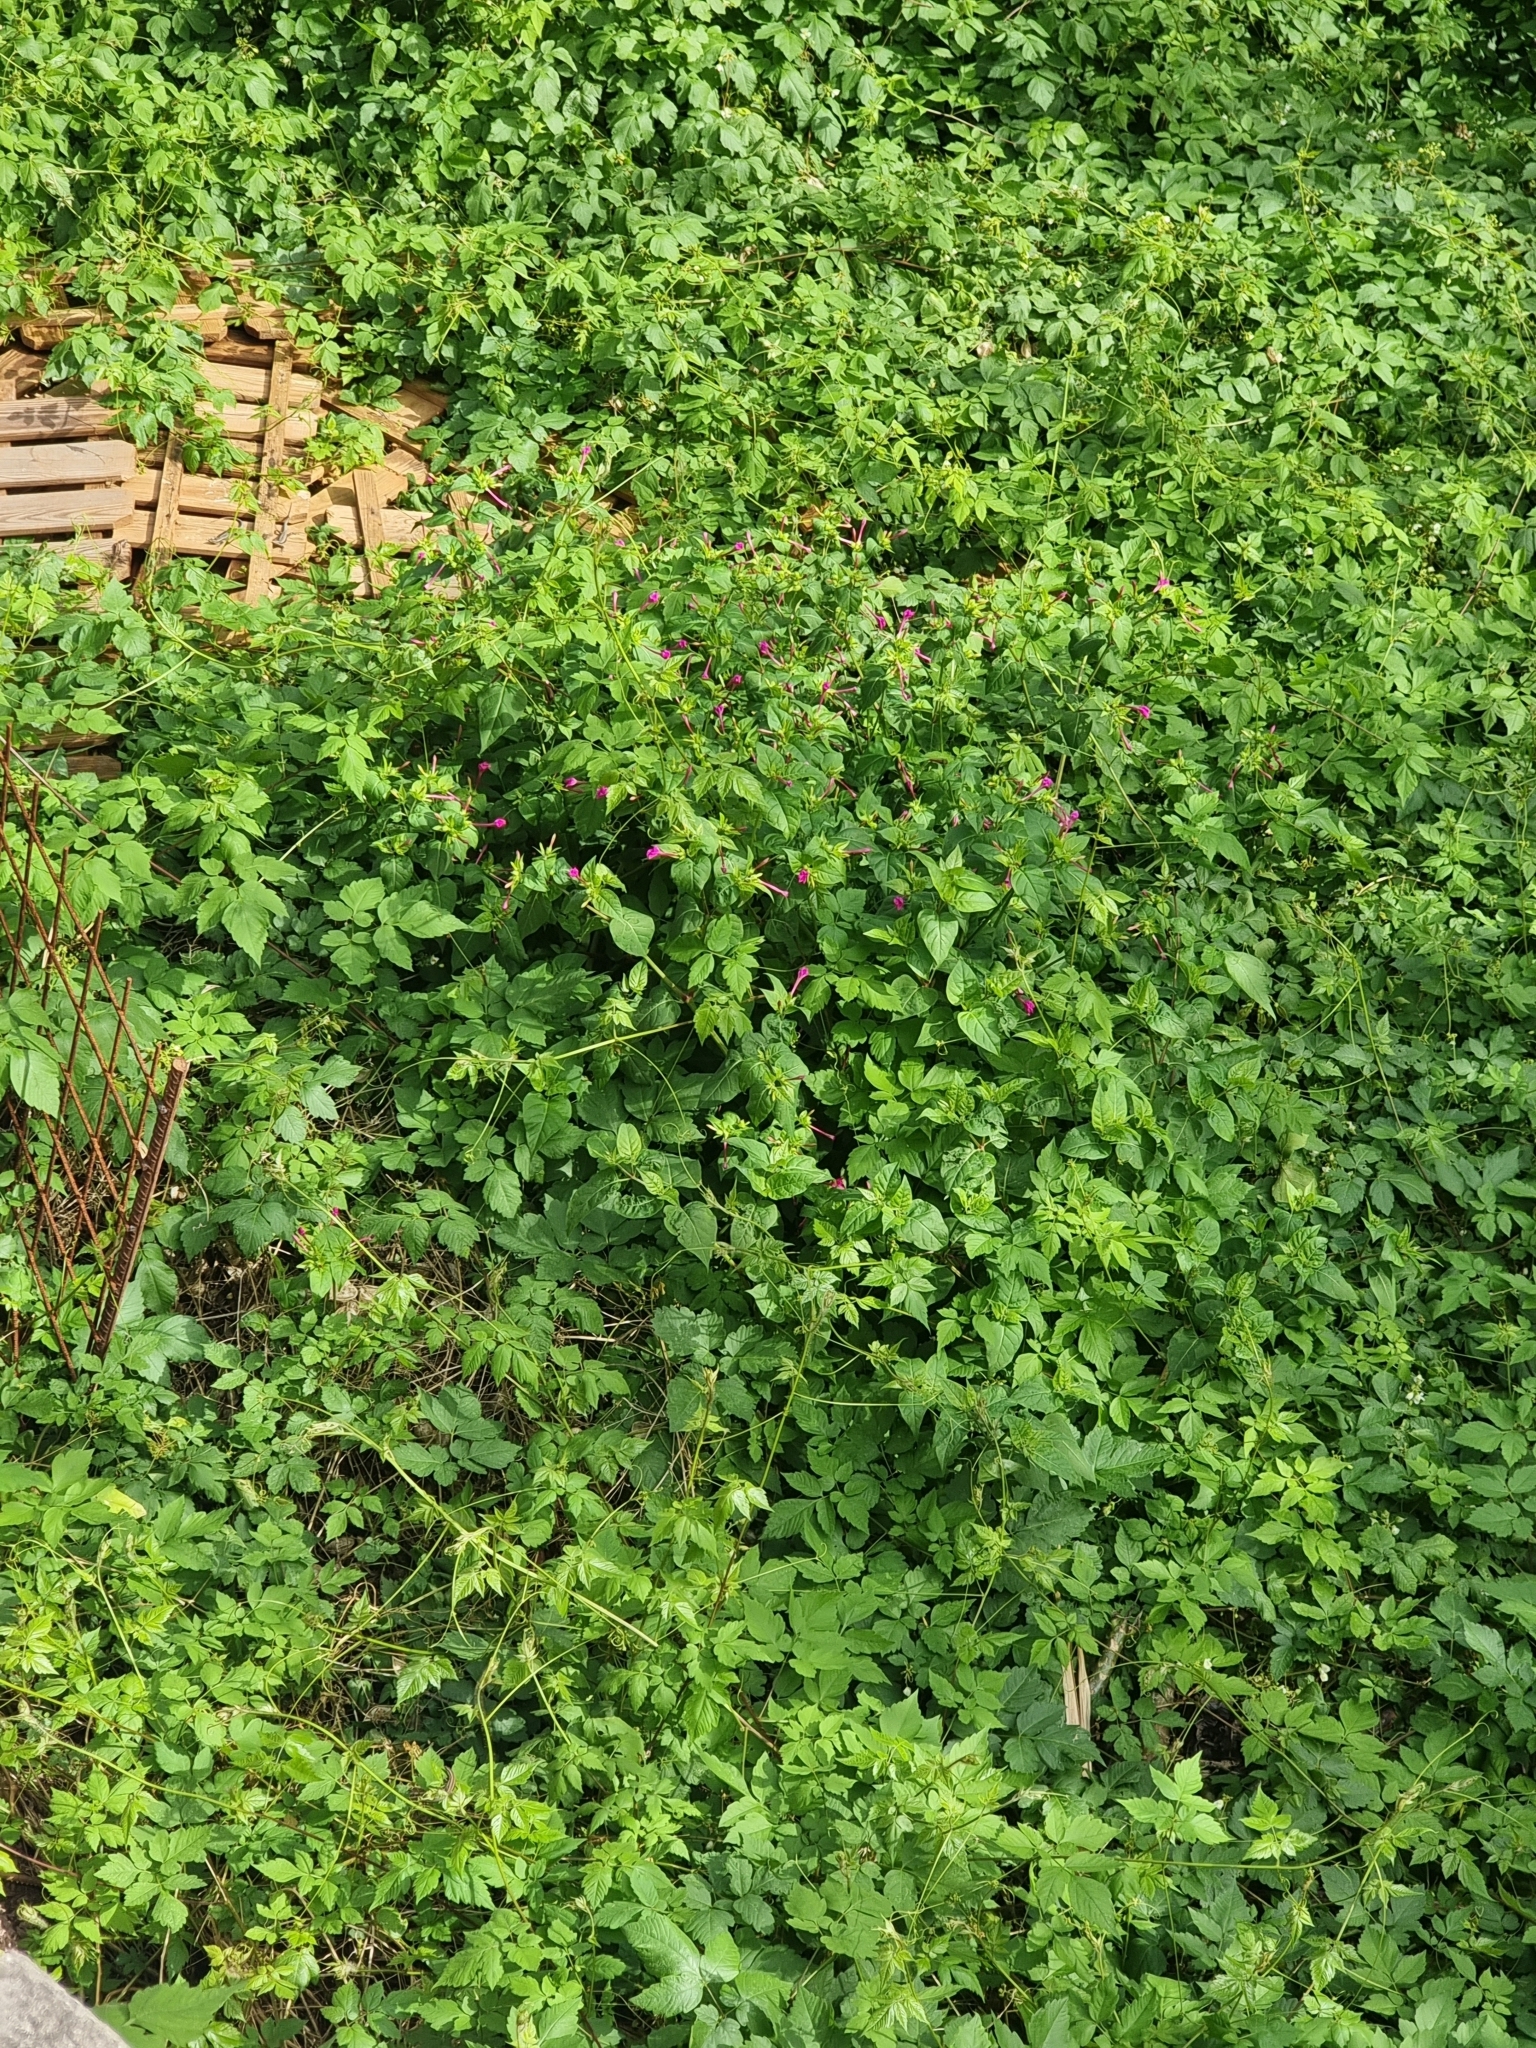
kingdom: Plantae
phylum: Tracheophyta
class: Magnoliopsida
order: Caryophyllales
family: Nyctaginaceae
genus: Mirabilis
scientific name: Mirabilis jalapa
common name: Marvel-of-peru
